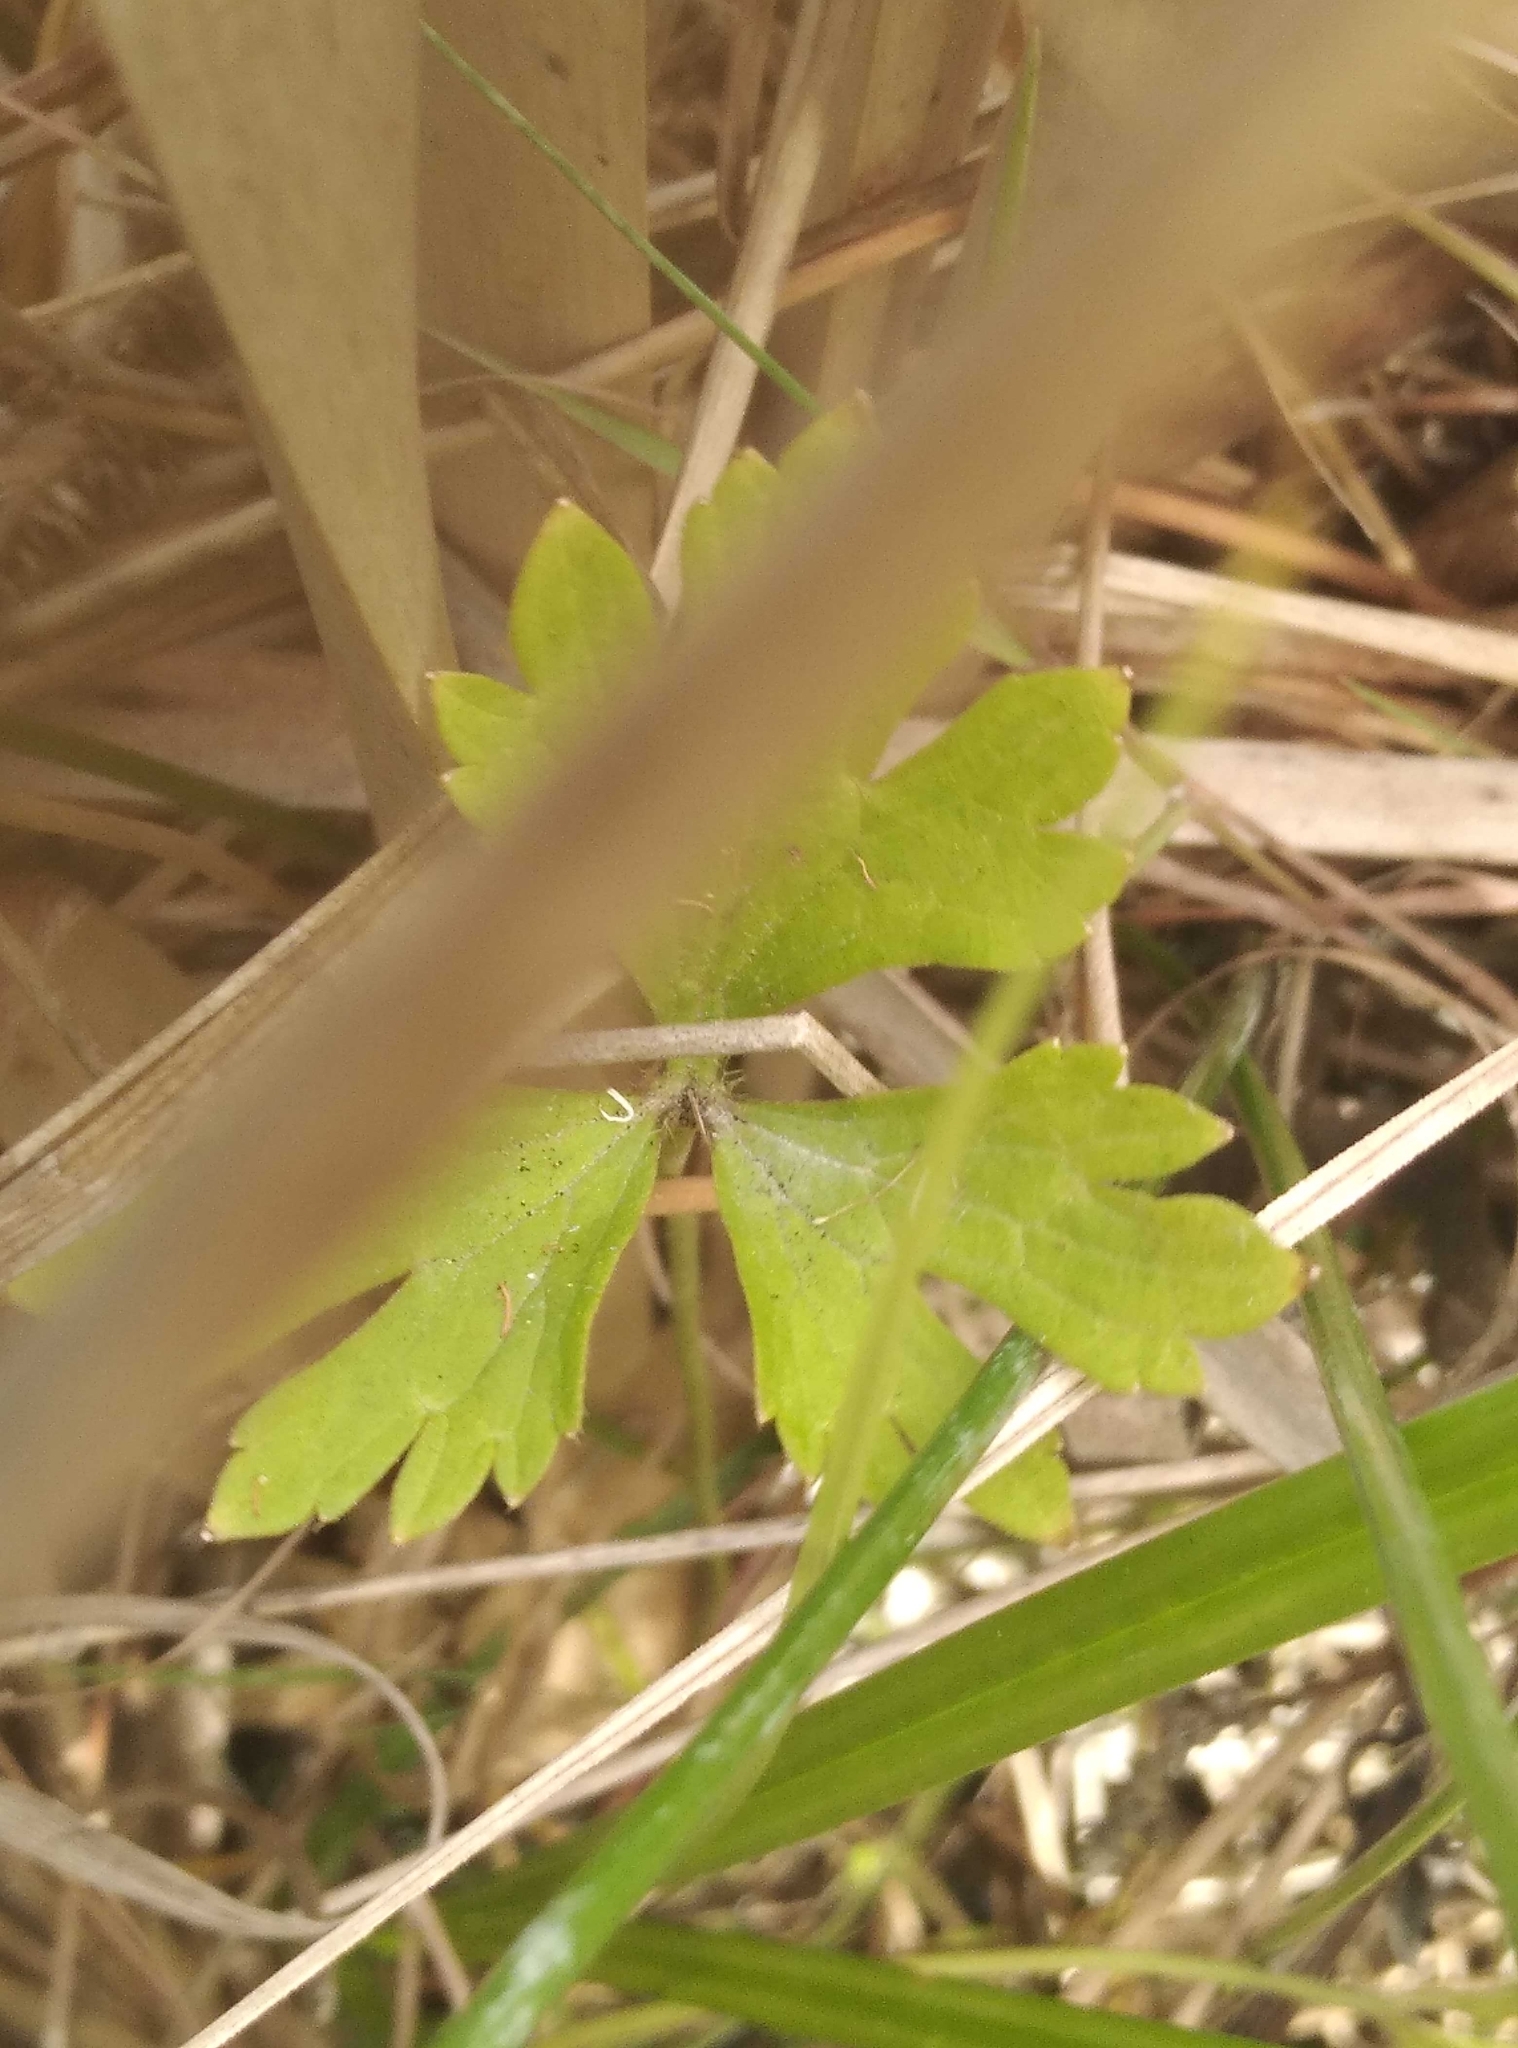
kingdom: Plantae
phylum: Tracheophyta
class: Magnoliopsida
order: Ranunculales
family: Ranunculaceae
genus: Ranunculus
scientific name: Ranunculus repens
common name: Creeping buttercup
